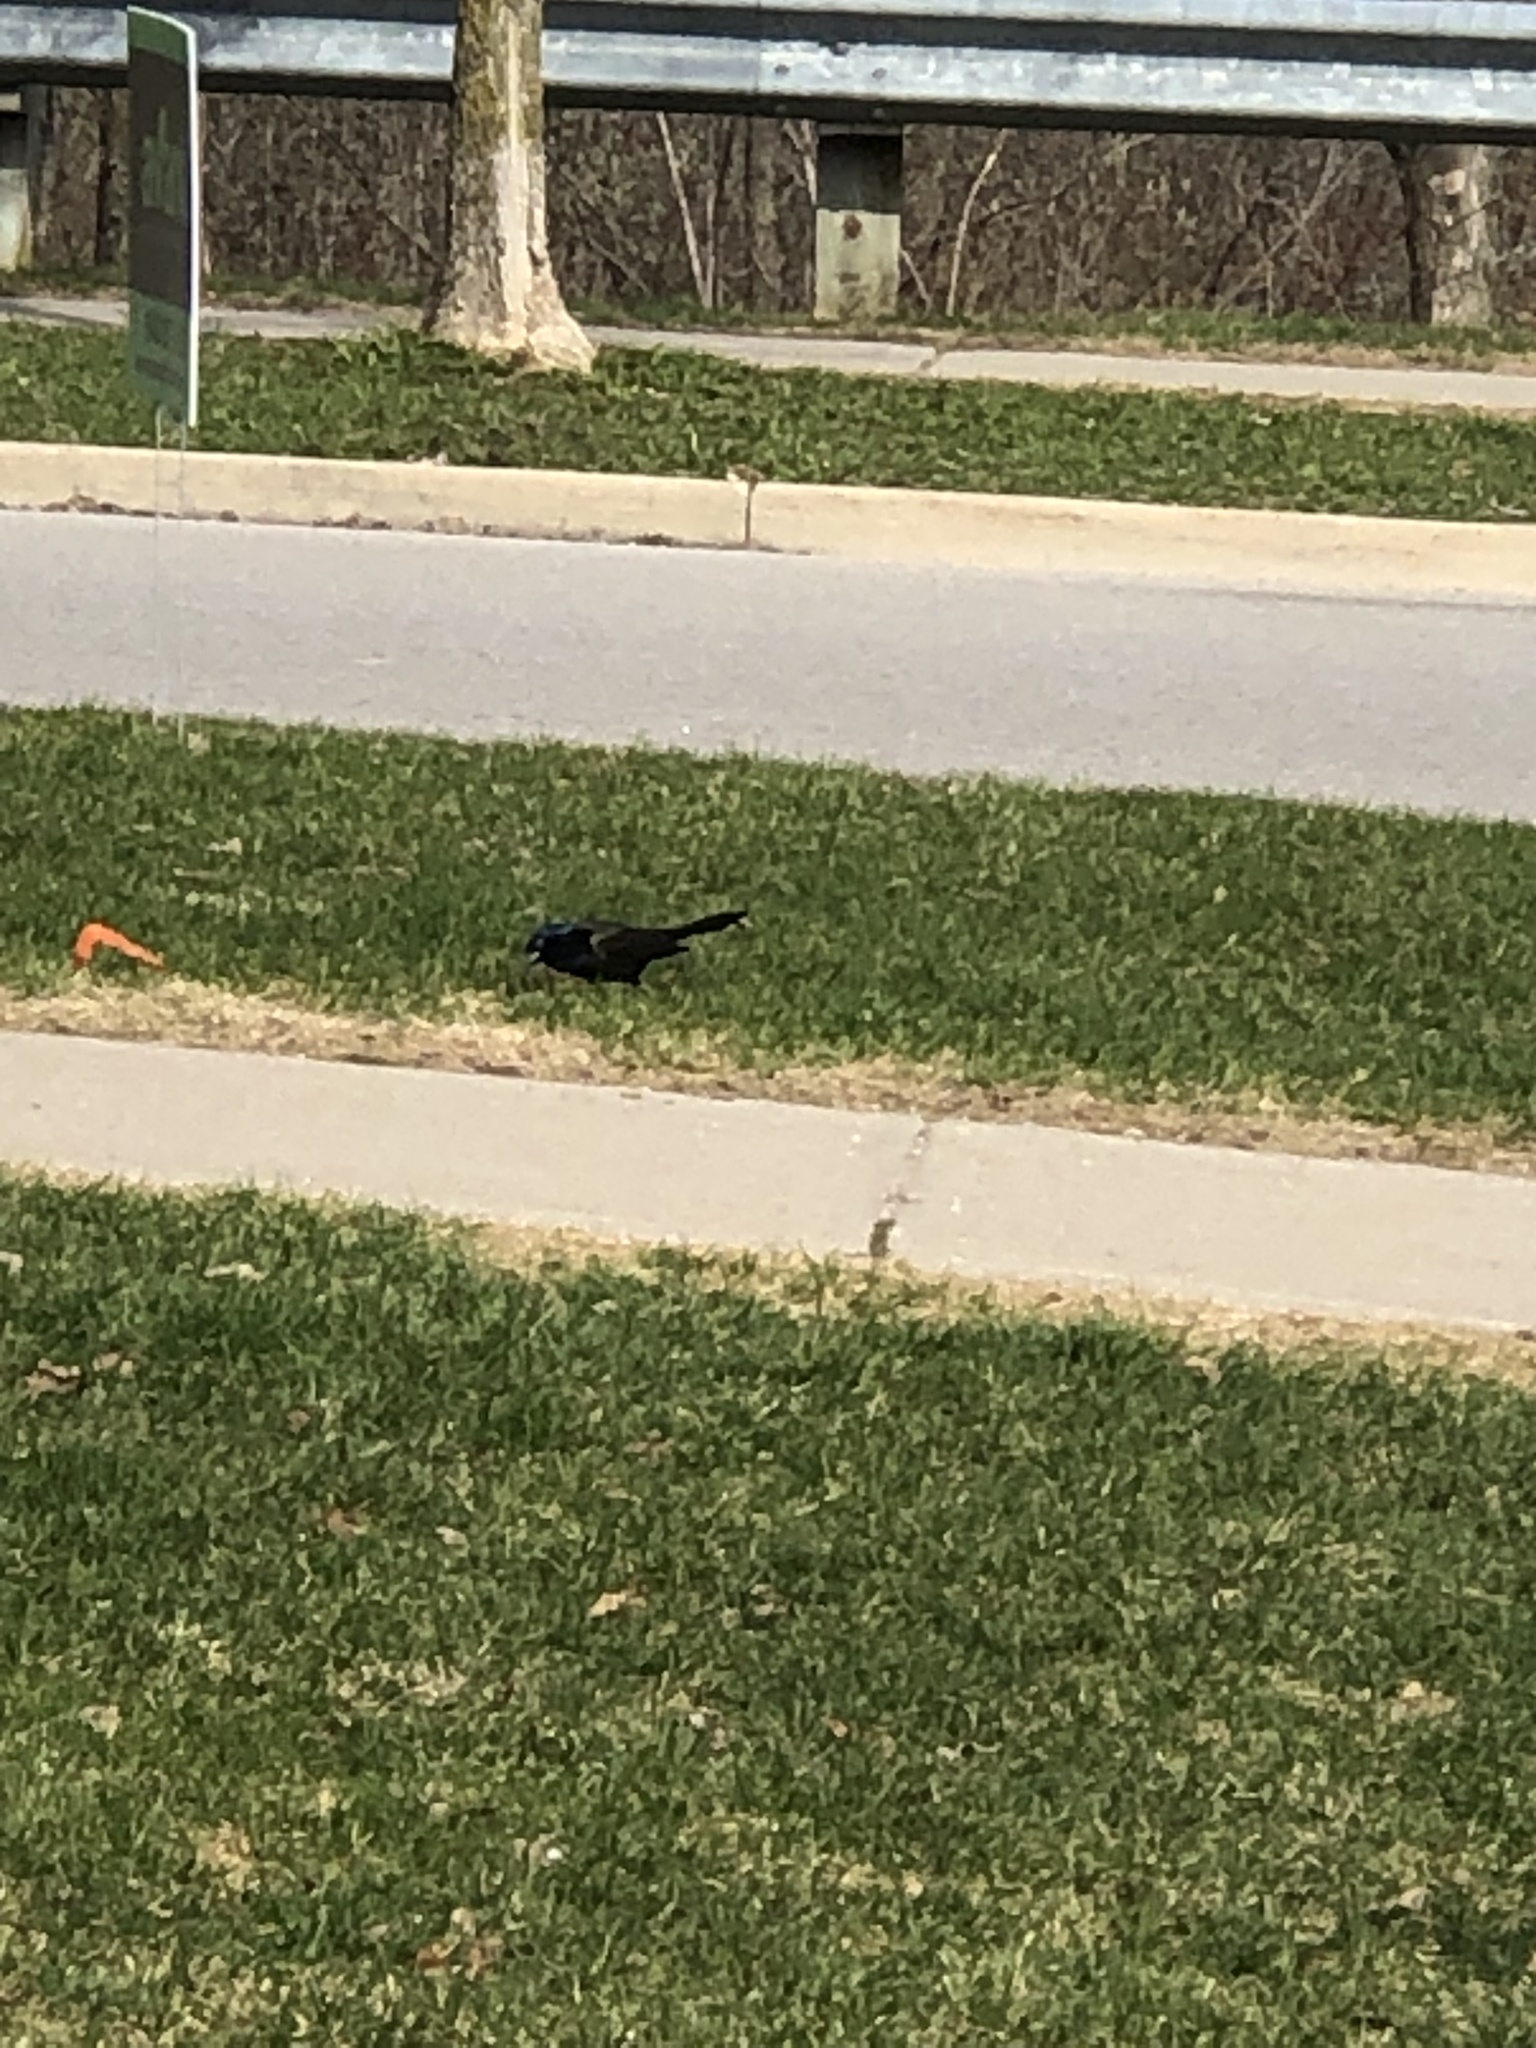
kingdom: Animalia
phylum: Chordata
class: Aves
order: Passeriformes
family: Icteridae
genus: Quiscalus
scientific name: Quiscalus quiscula
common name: Common grackle
